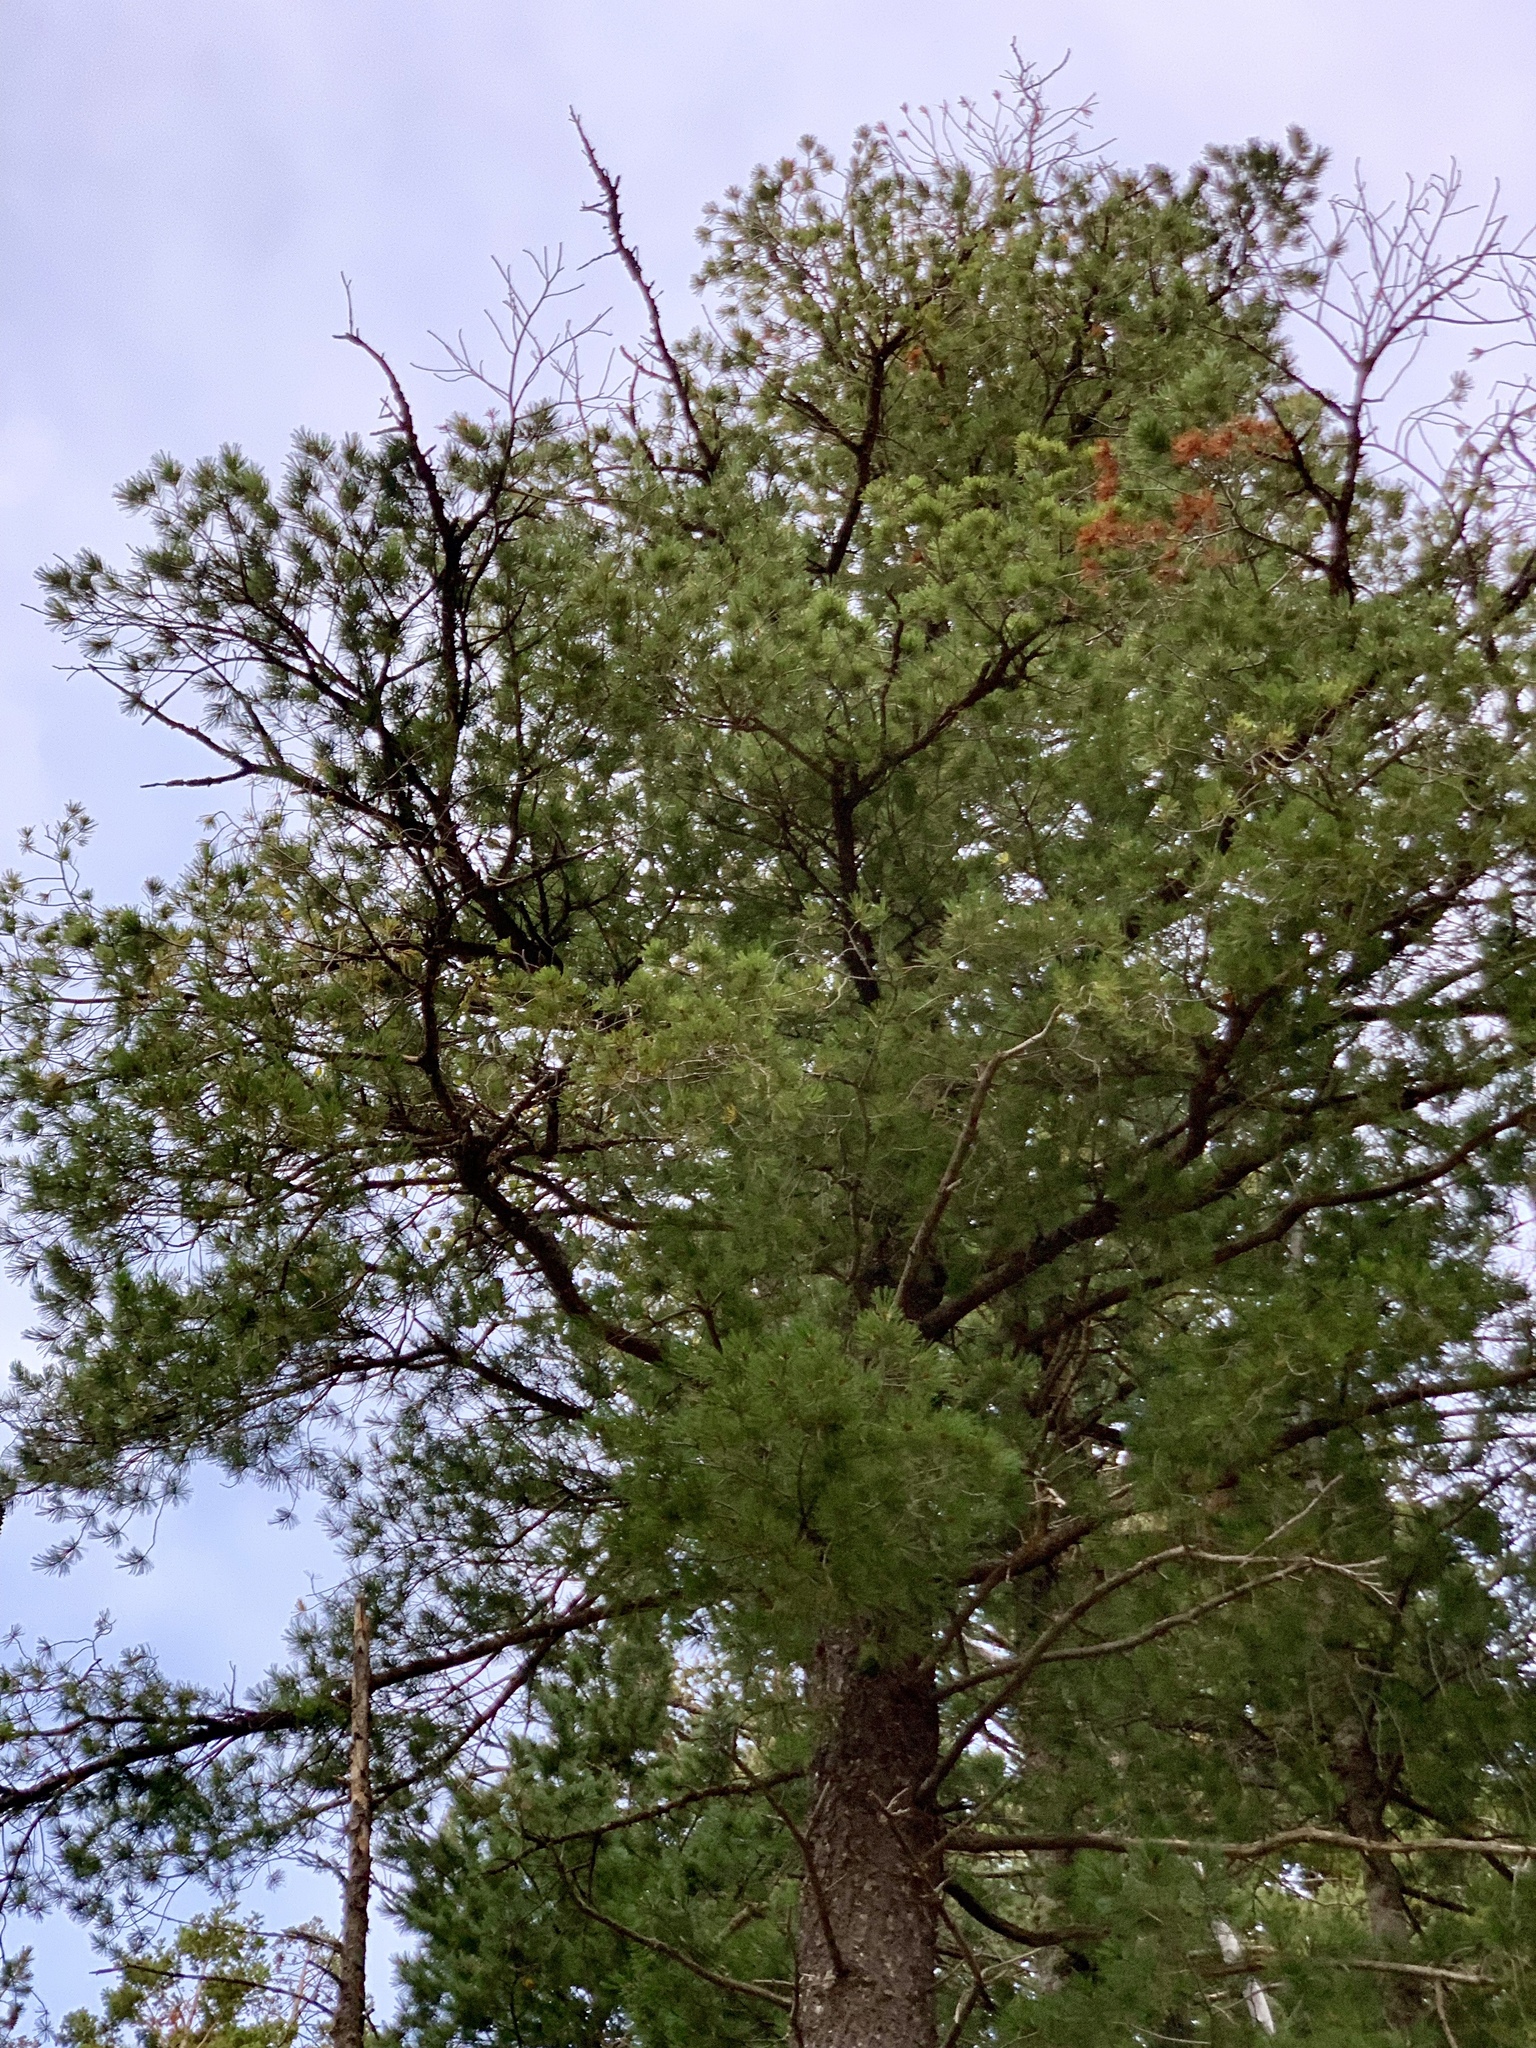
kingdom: Plantae
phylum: Tracheophyta
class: Pinopsida
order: Pinales
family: Pinaceae
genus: Pinus
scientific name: Pinus strobiformis
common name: Southwestern white pine
